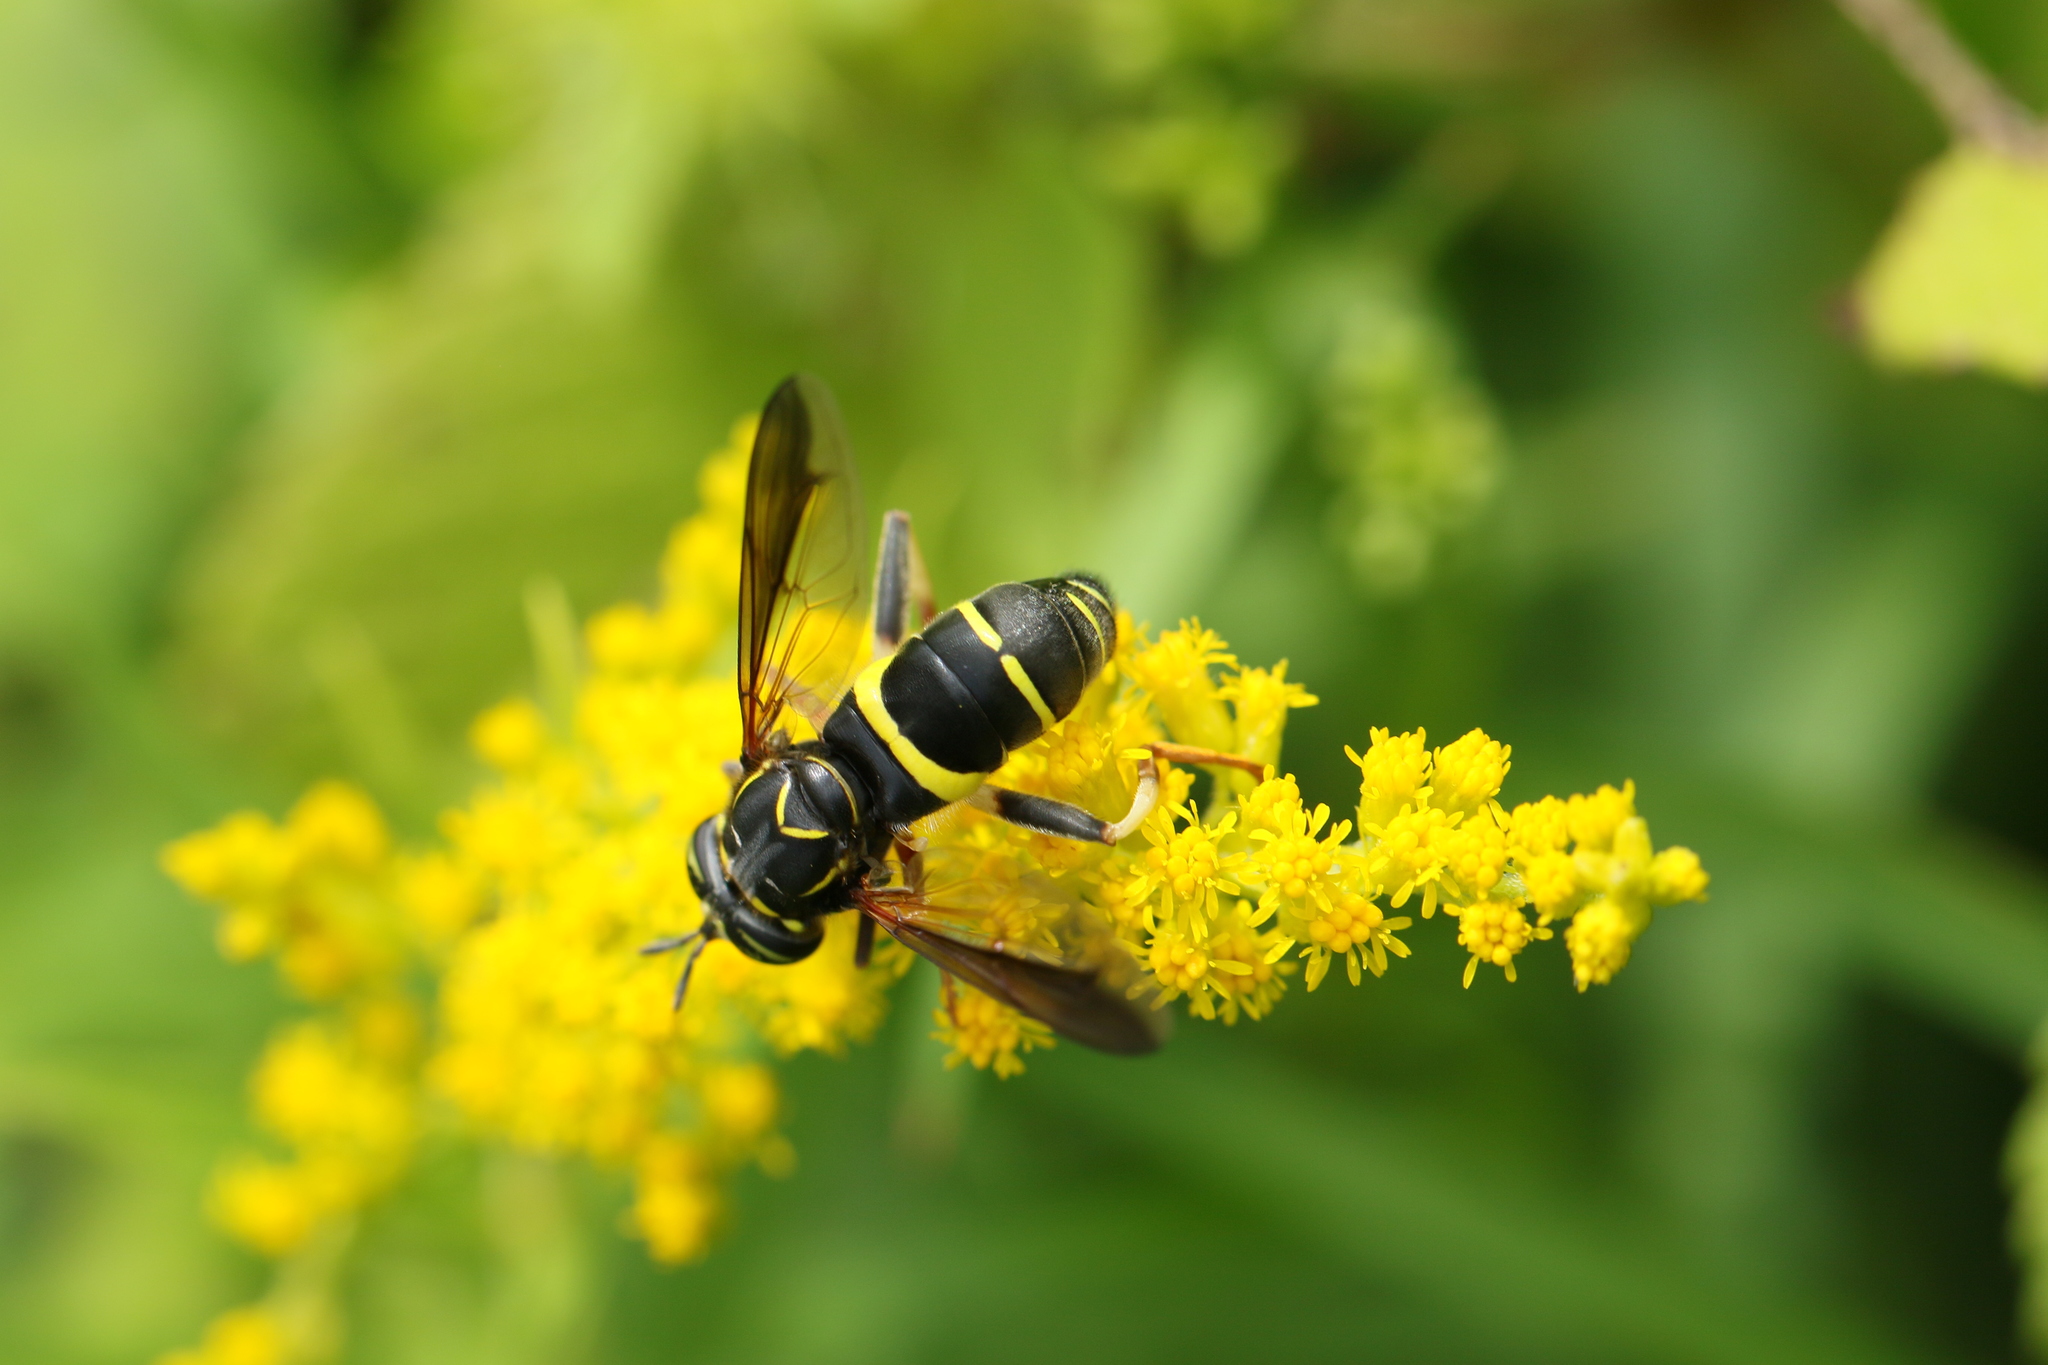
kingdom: Animalia
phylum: Arthropoda
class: Insecta
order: Diptera
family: Syrphidae
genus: Spilomyia
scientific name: Spilomyia sayi
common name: Four-lined hornet fly
